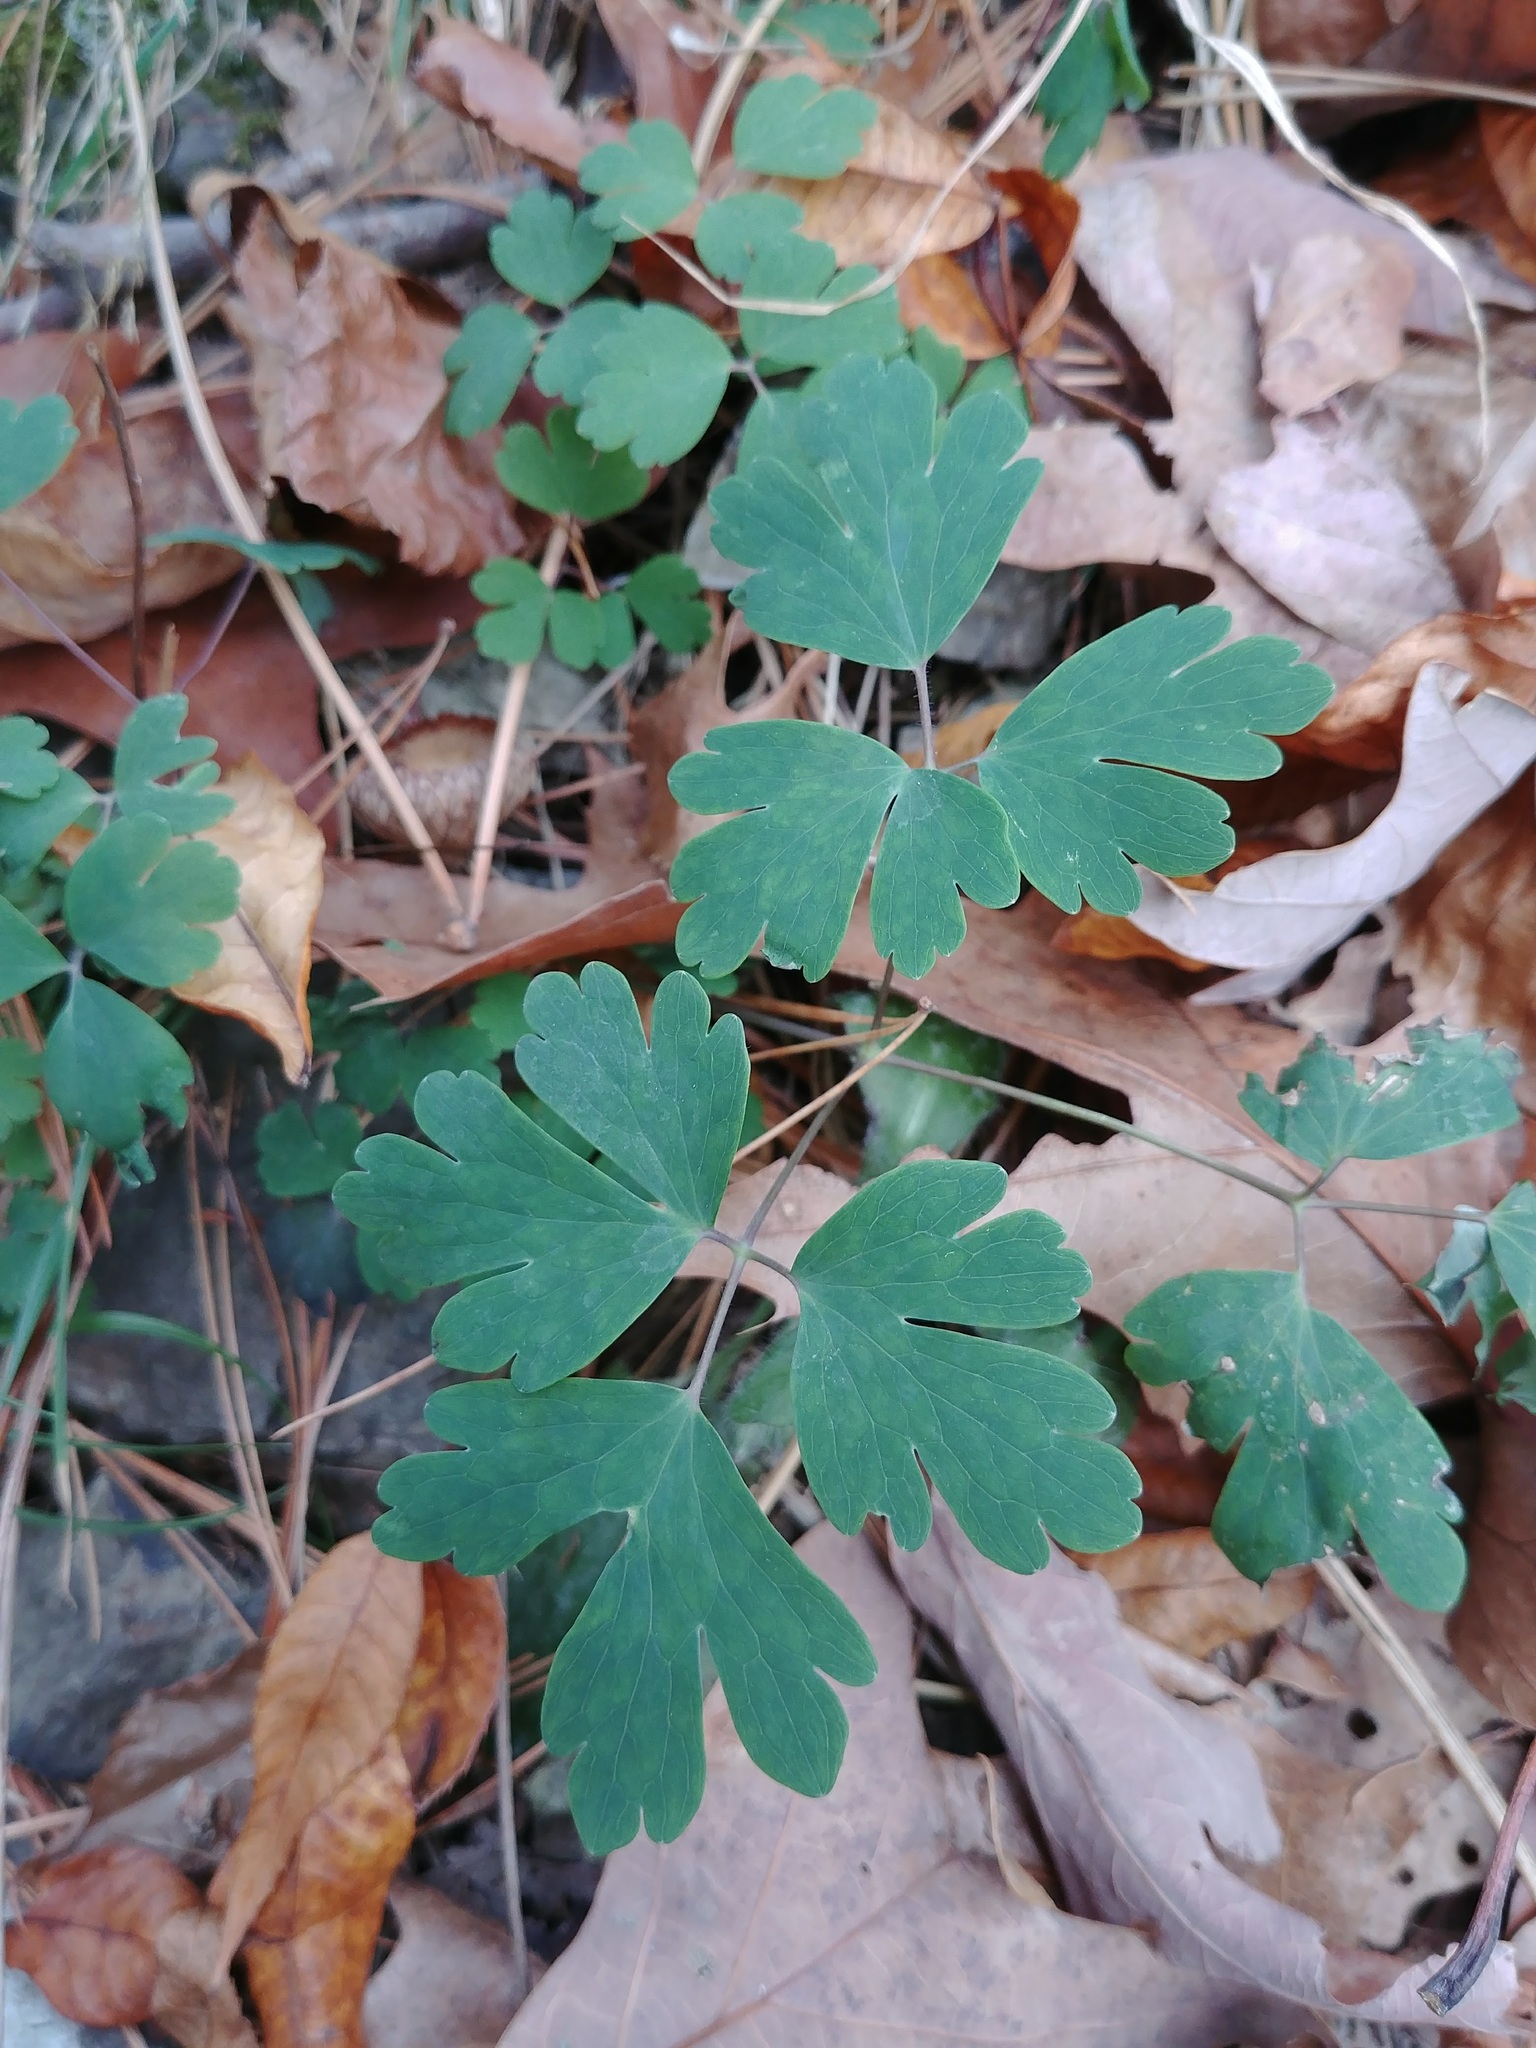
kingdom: Plantae
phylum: Tracheophyta
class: Magnoliopsida
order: Ranunculales
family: Ranunculaceae
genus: Aquilegia
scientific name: Aquilegia canadensis
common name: American columbine
